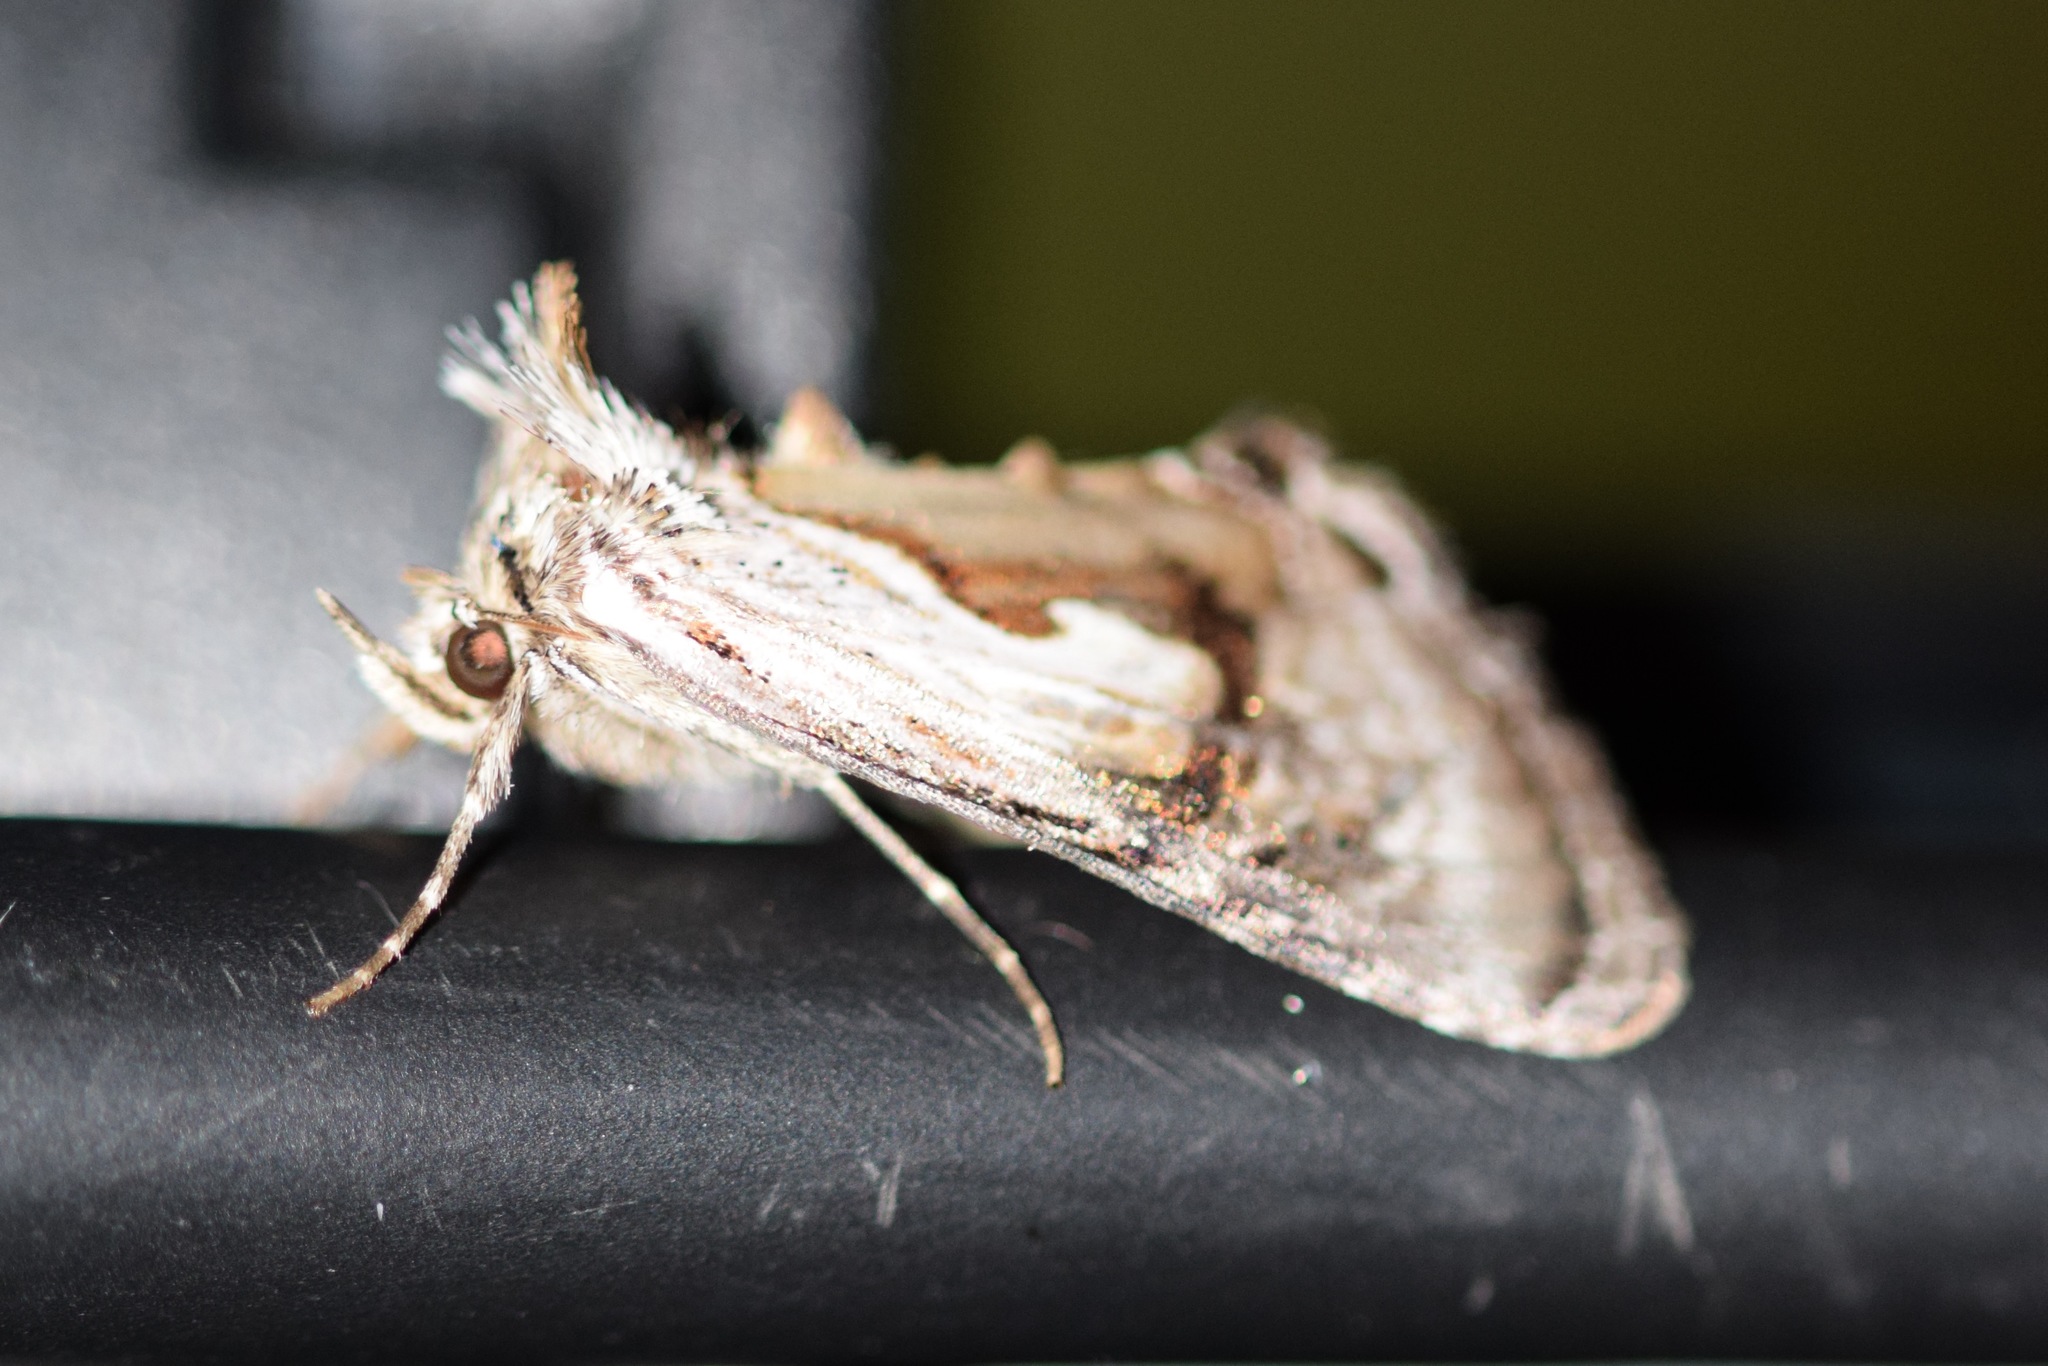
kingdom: Animalia
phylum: Arthropoda
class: Insecta
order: Lepidoptera
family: Noctuidae
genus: Chrysanympha
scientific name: Chrysanympha formosa
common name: Formosa looper moth
